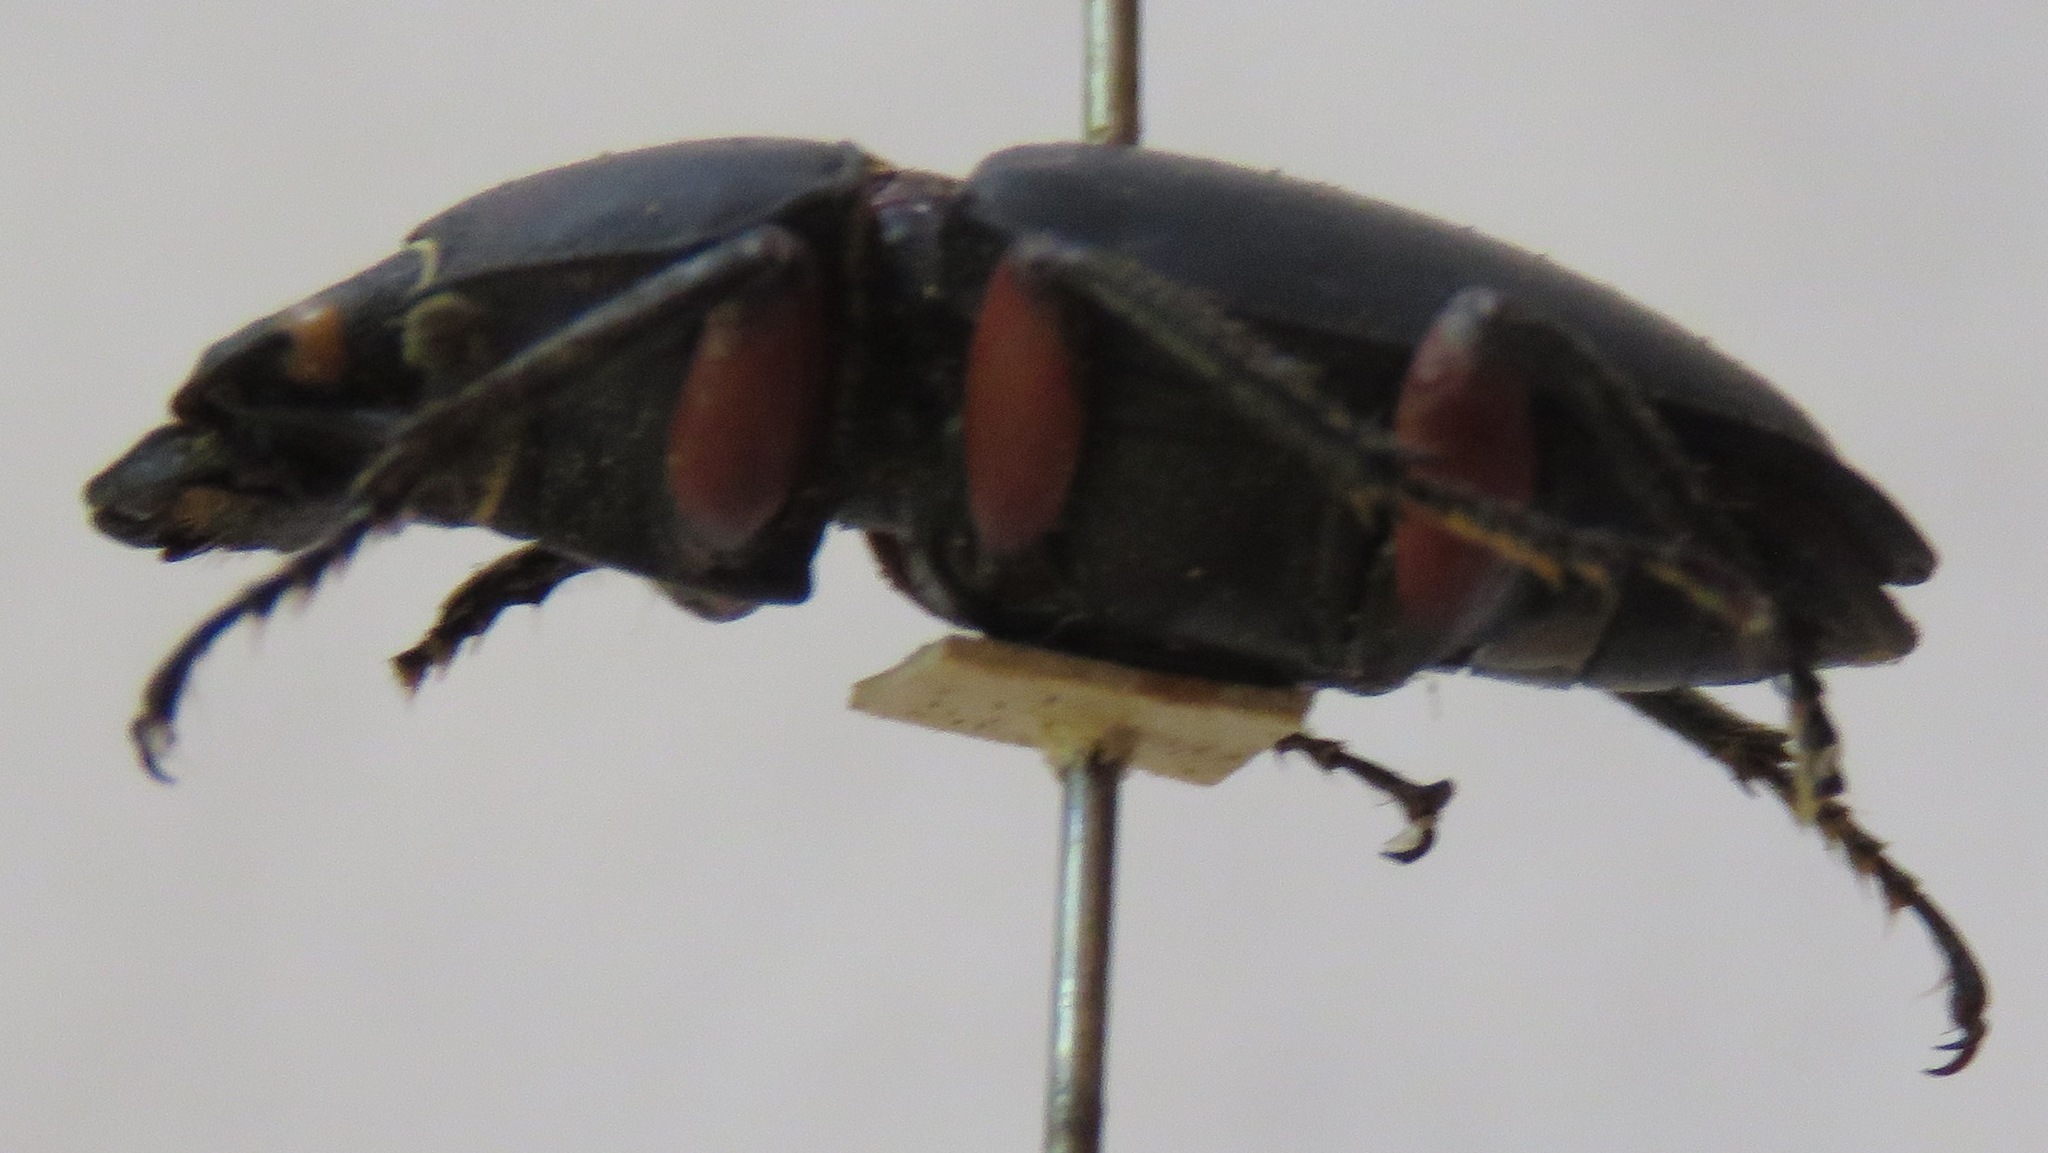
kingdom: Animalia
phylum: Arthropoda
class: Insecta
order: Coleoptera
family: Lucanidae
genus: Leptinopterus
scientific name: Leptinopterus femoratus
